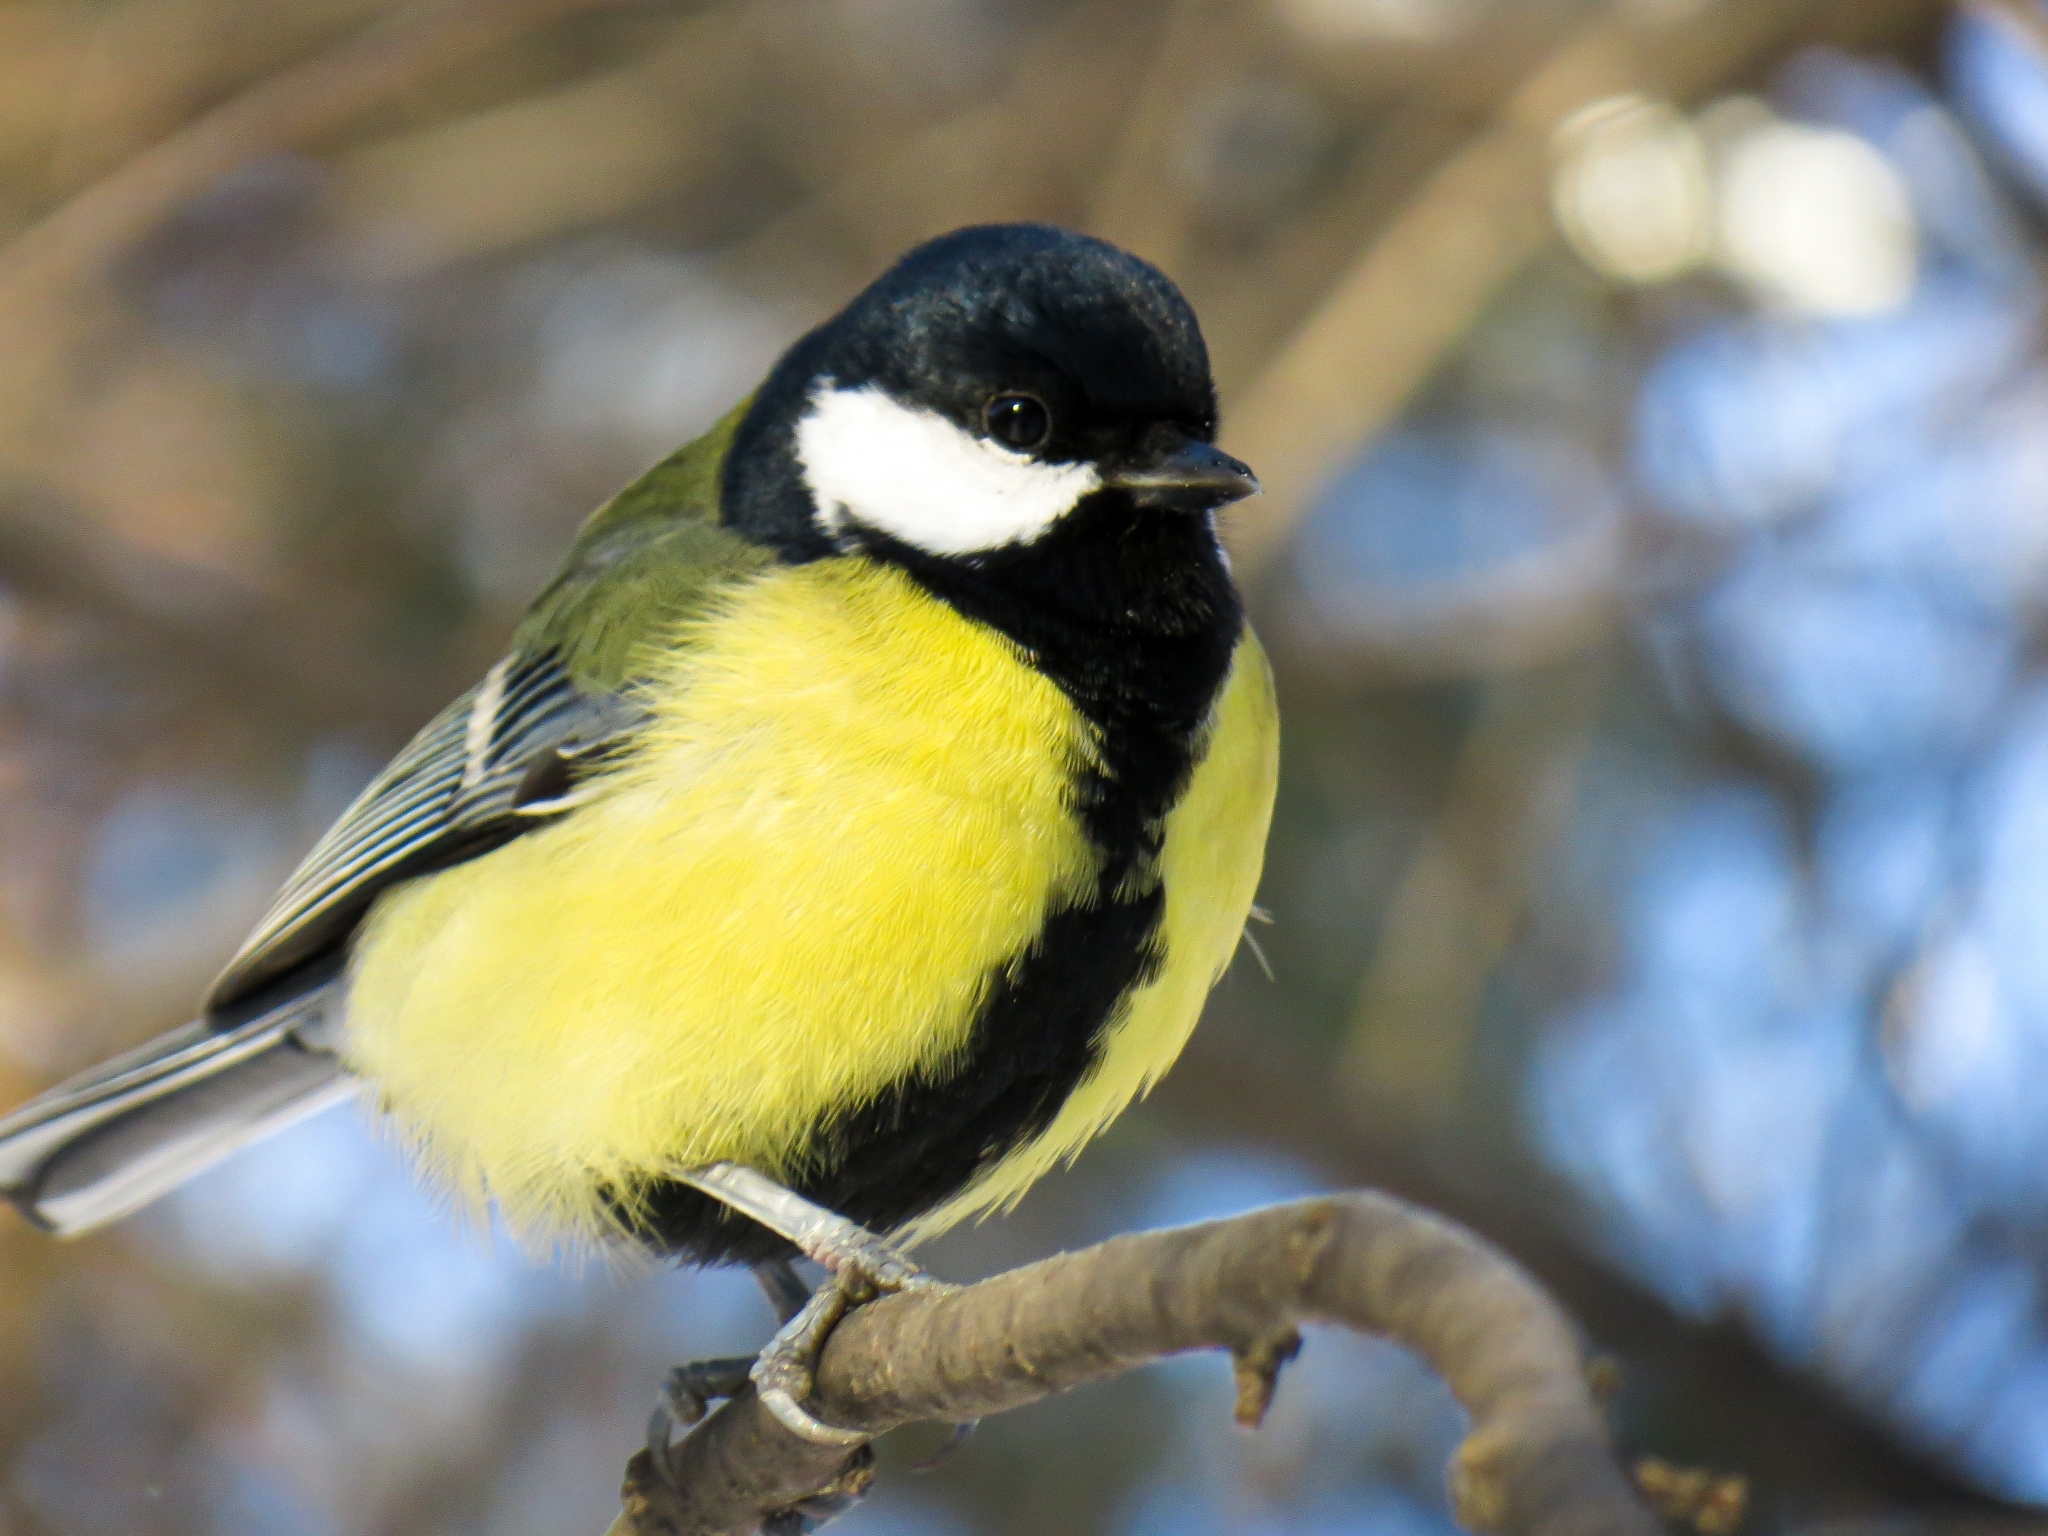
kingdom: Animalia
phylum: Chordata
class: Aves
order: Passeriformes
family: Paridae
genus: Parus
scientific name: Parus major
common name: Great tit
